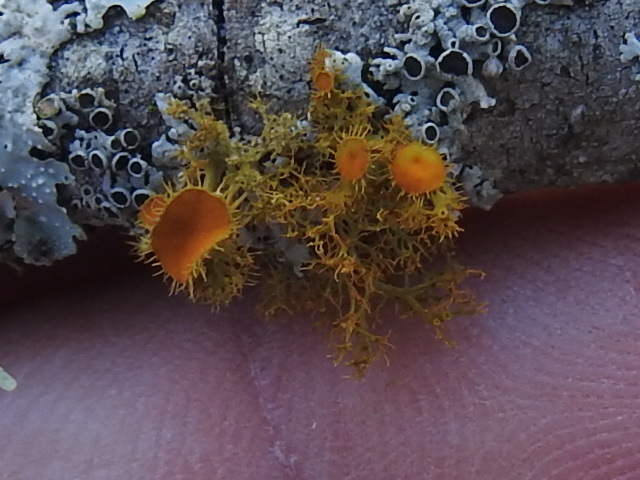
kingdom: Fungi
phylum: Ascomycota
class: Lecanoromycetes
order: Teloschistales
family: Teloschistaceae
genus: Niorma
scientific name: Niorma chrysophthalma
